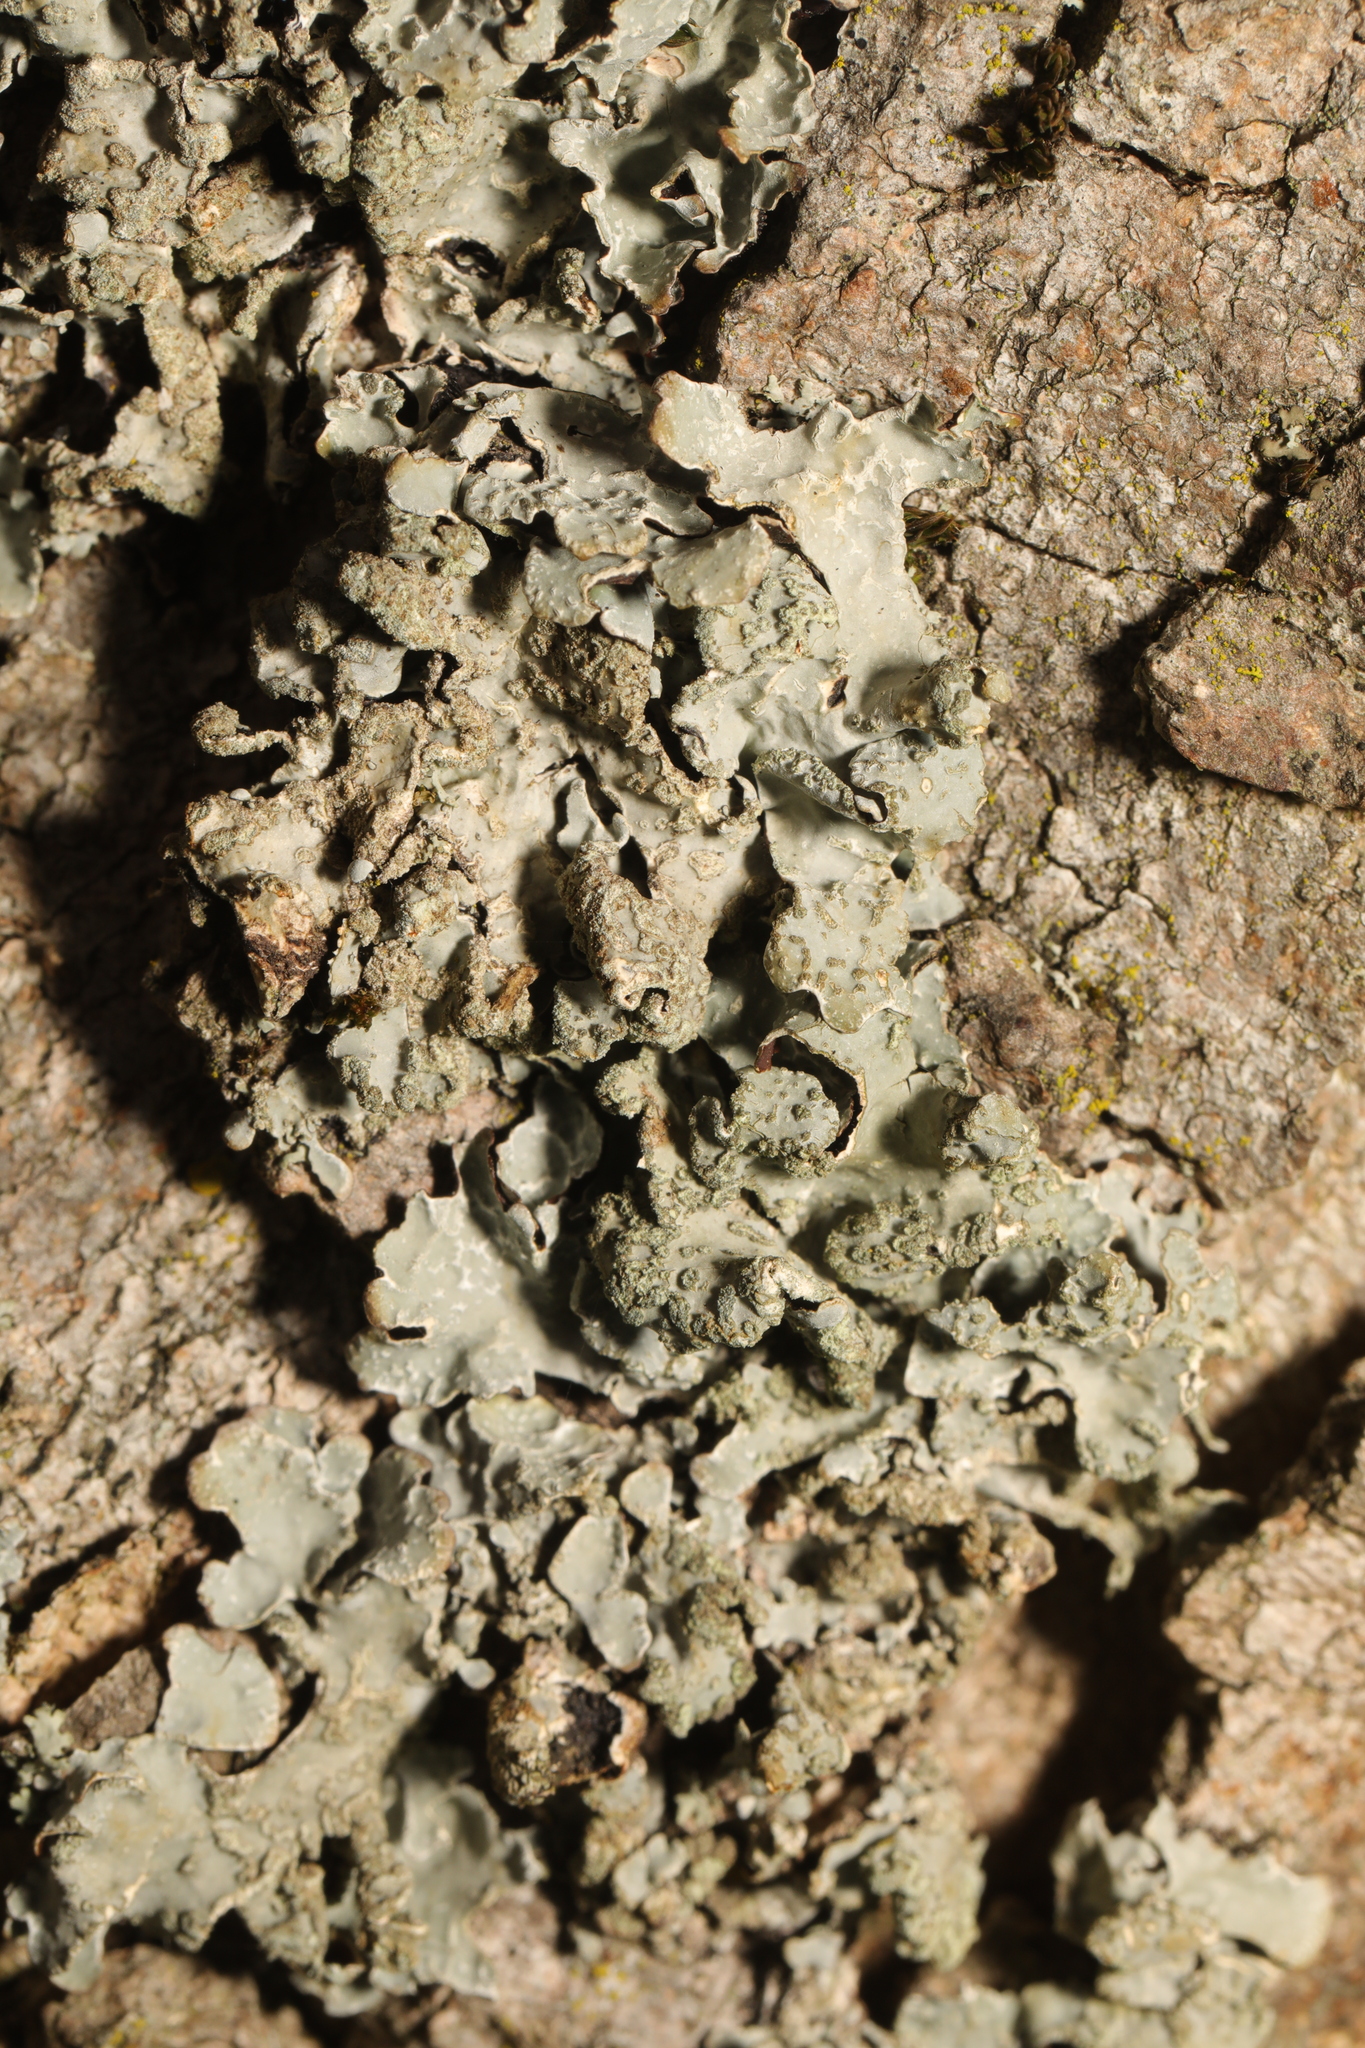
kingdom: Fungi
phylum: Ascomycota
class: Lecanoromycetes
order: Lecanorales
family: Parmeliaceae
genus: Parmelia
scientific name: Parmelia sulcata
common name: Netted shield lichen
